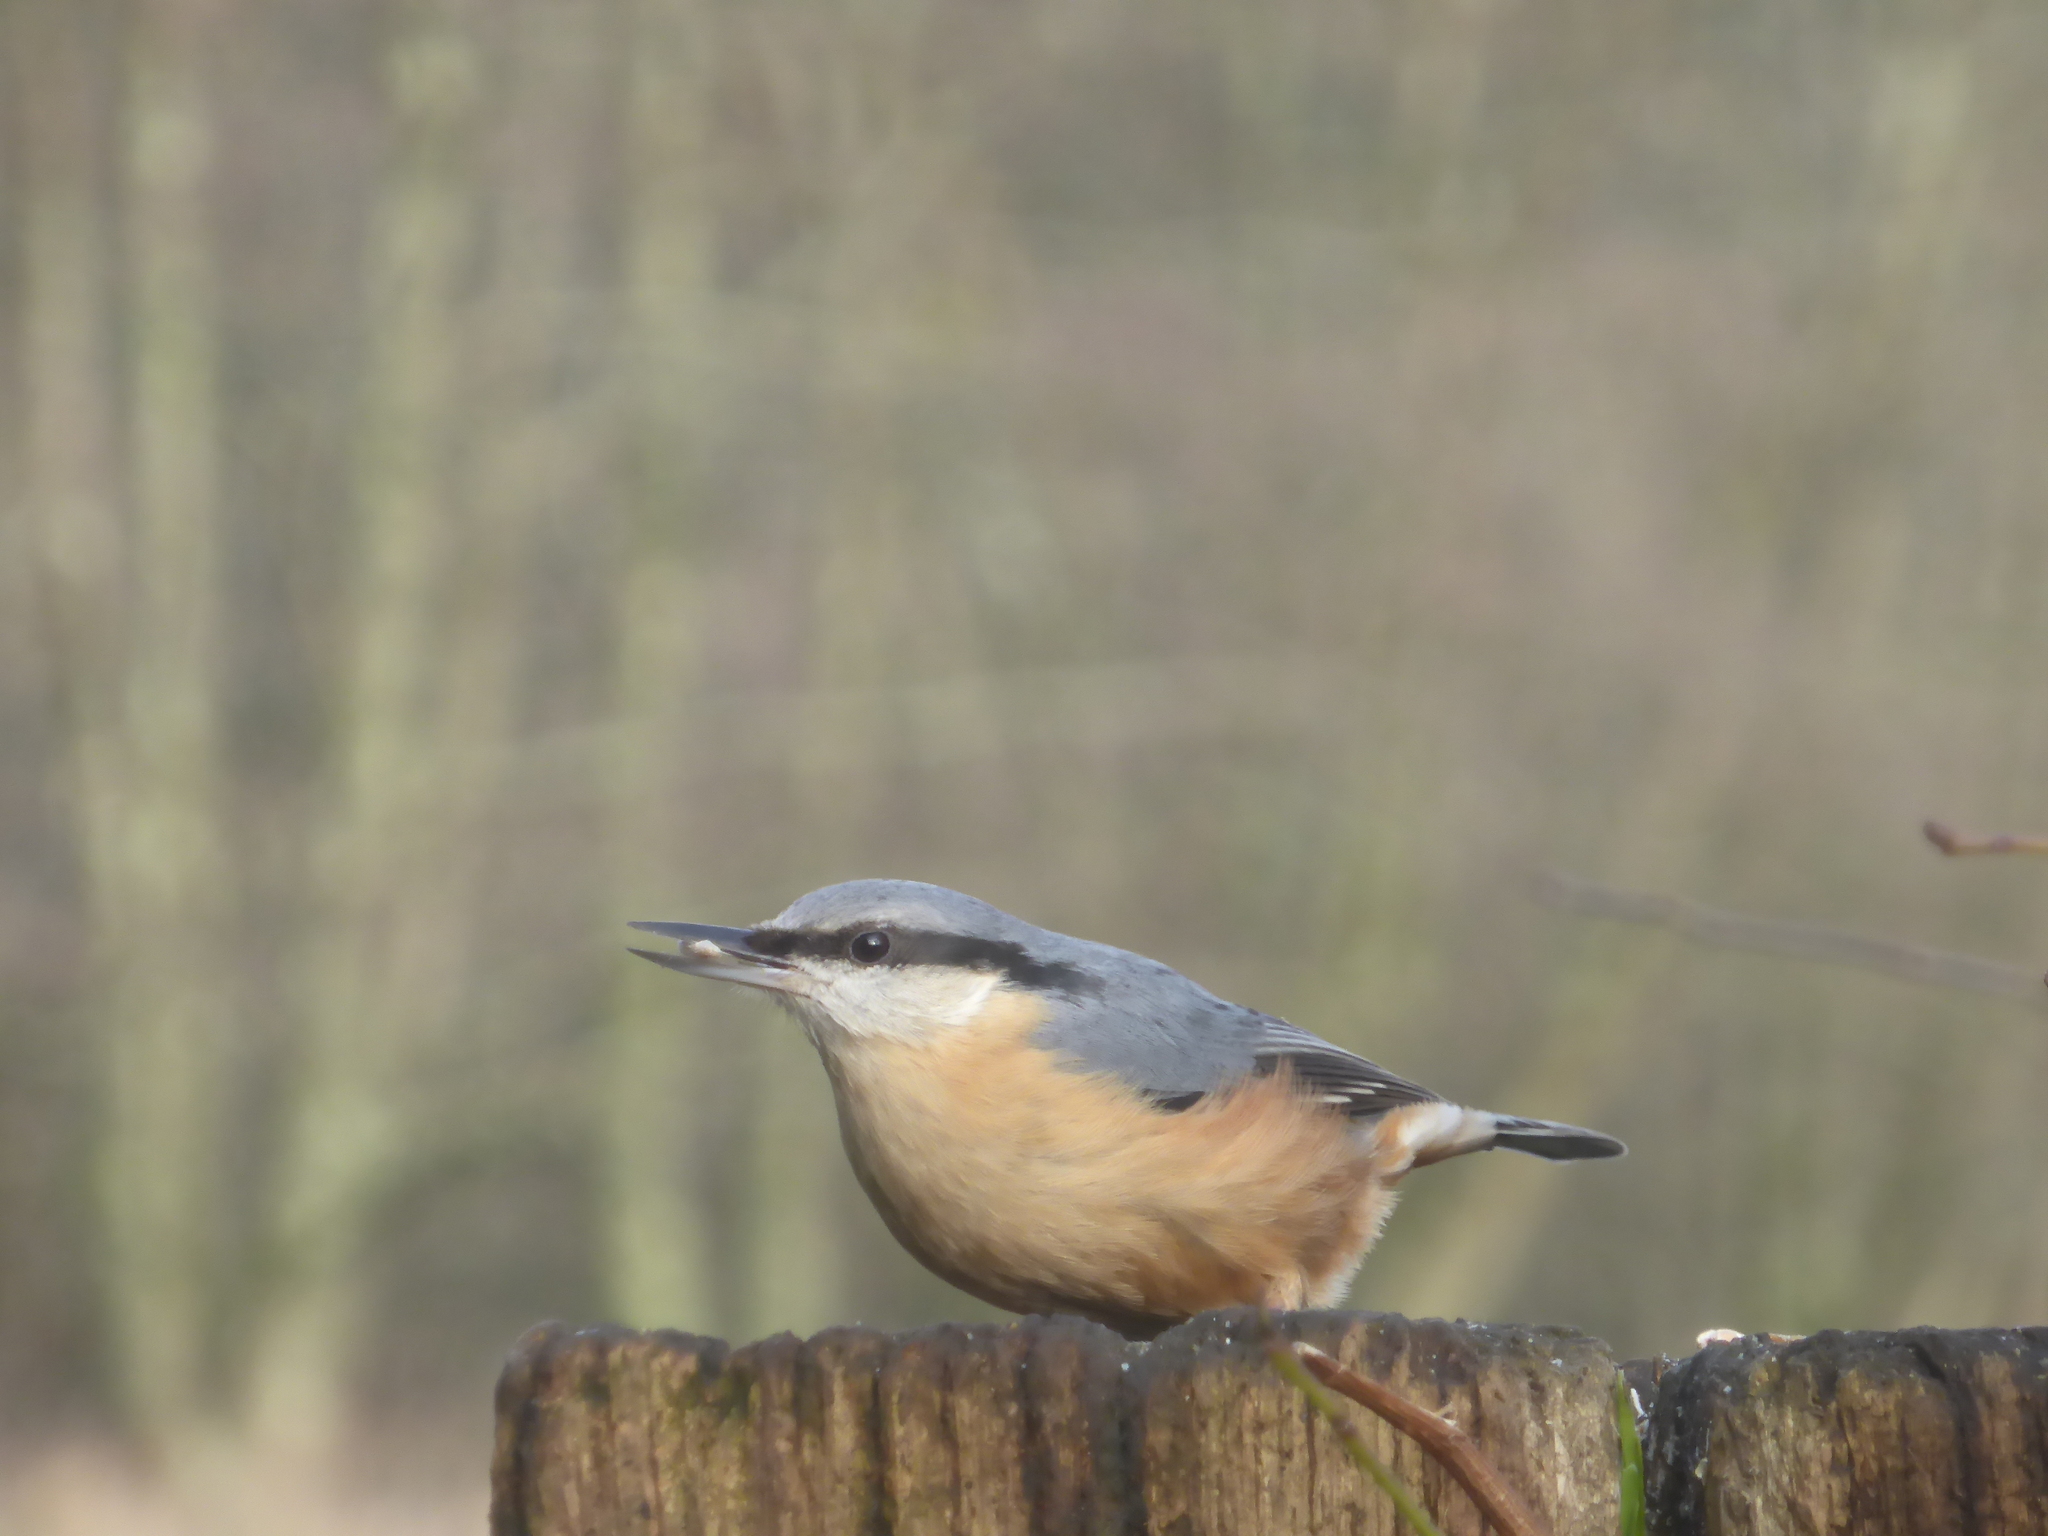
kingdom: Animalia
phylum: Chordata
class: Aves
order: Passeriformes
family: Sittidae
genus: Sitta
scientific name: Sitta europaea
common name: Eurasian nuthatch
